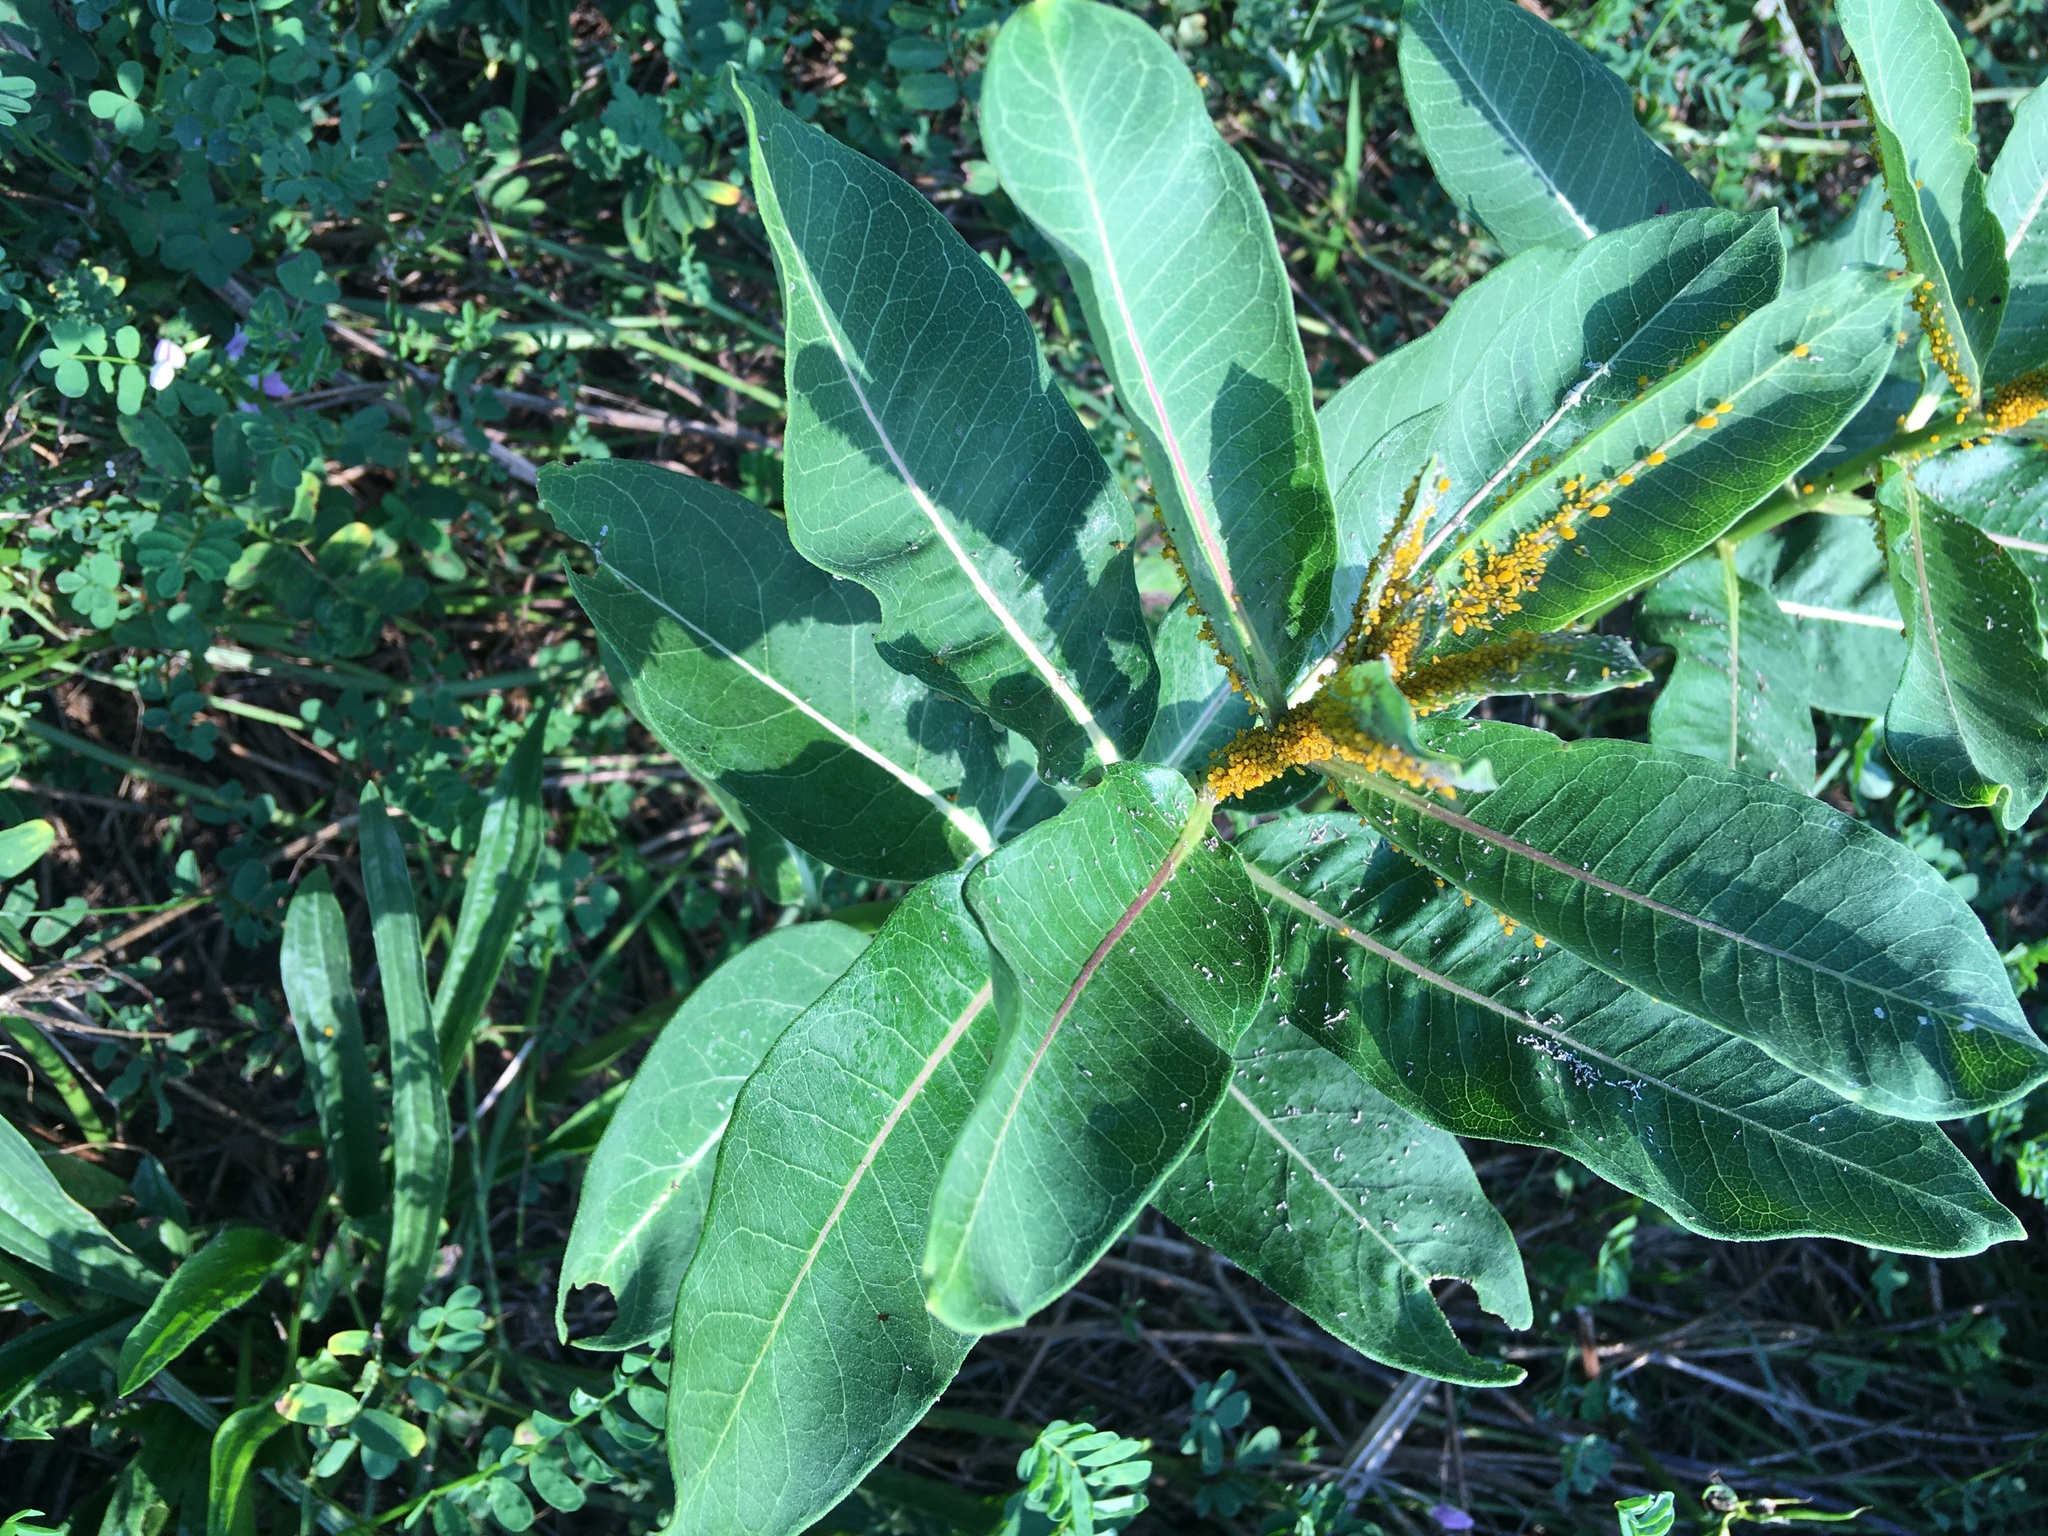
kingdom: Plantae
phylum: Tracheophyta
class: Magnoliopsida
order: Gentianales
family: Apocynaceae
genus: Asclepias
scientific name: Asclepias syriaca
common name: Common milkweed
